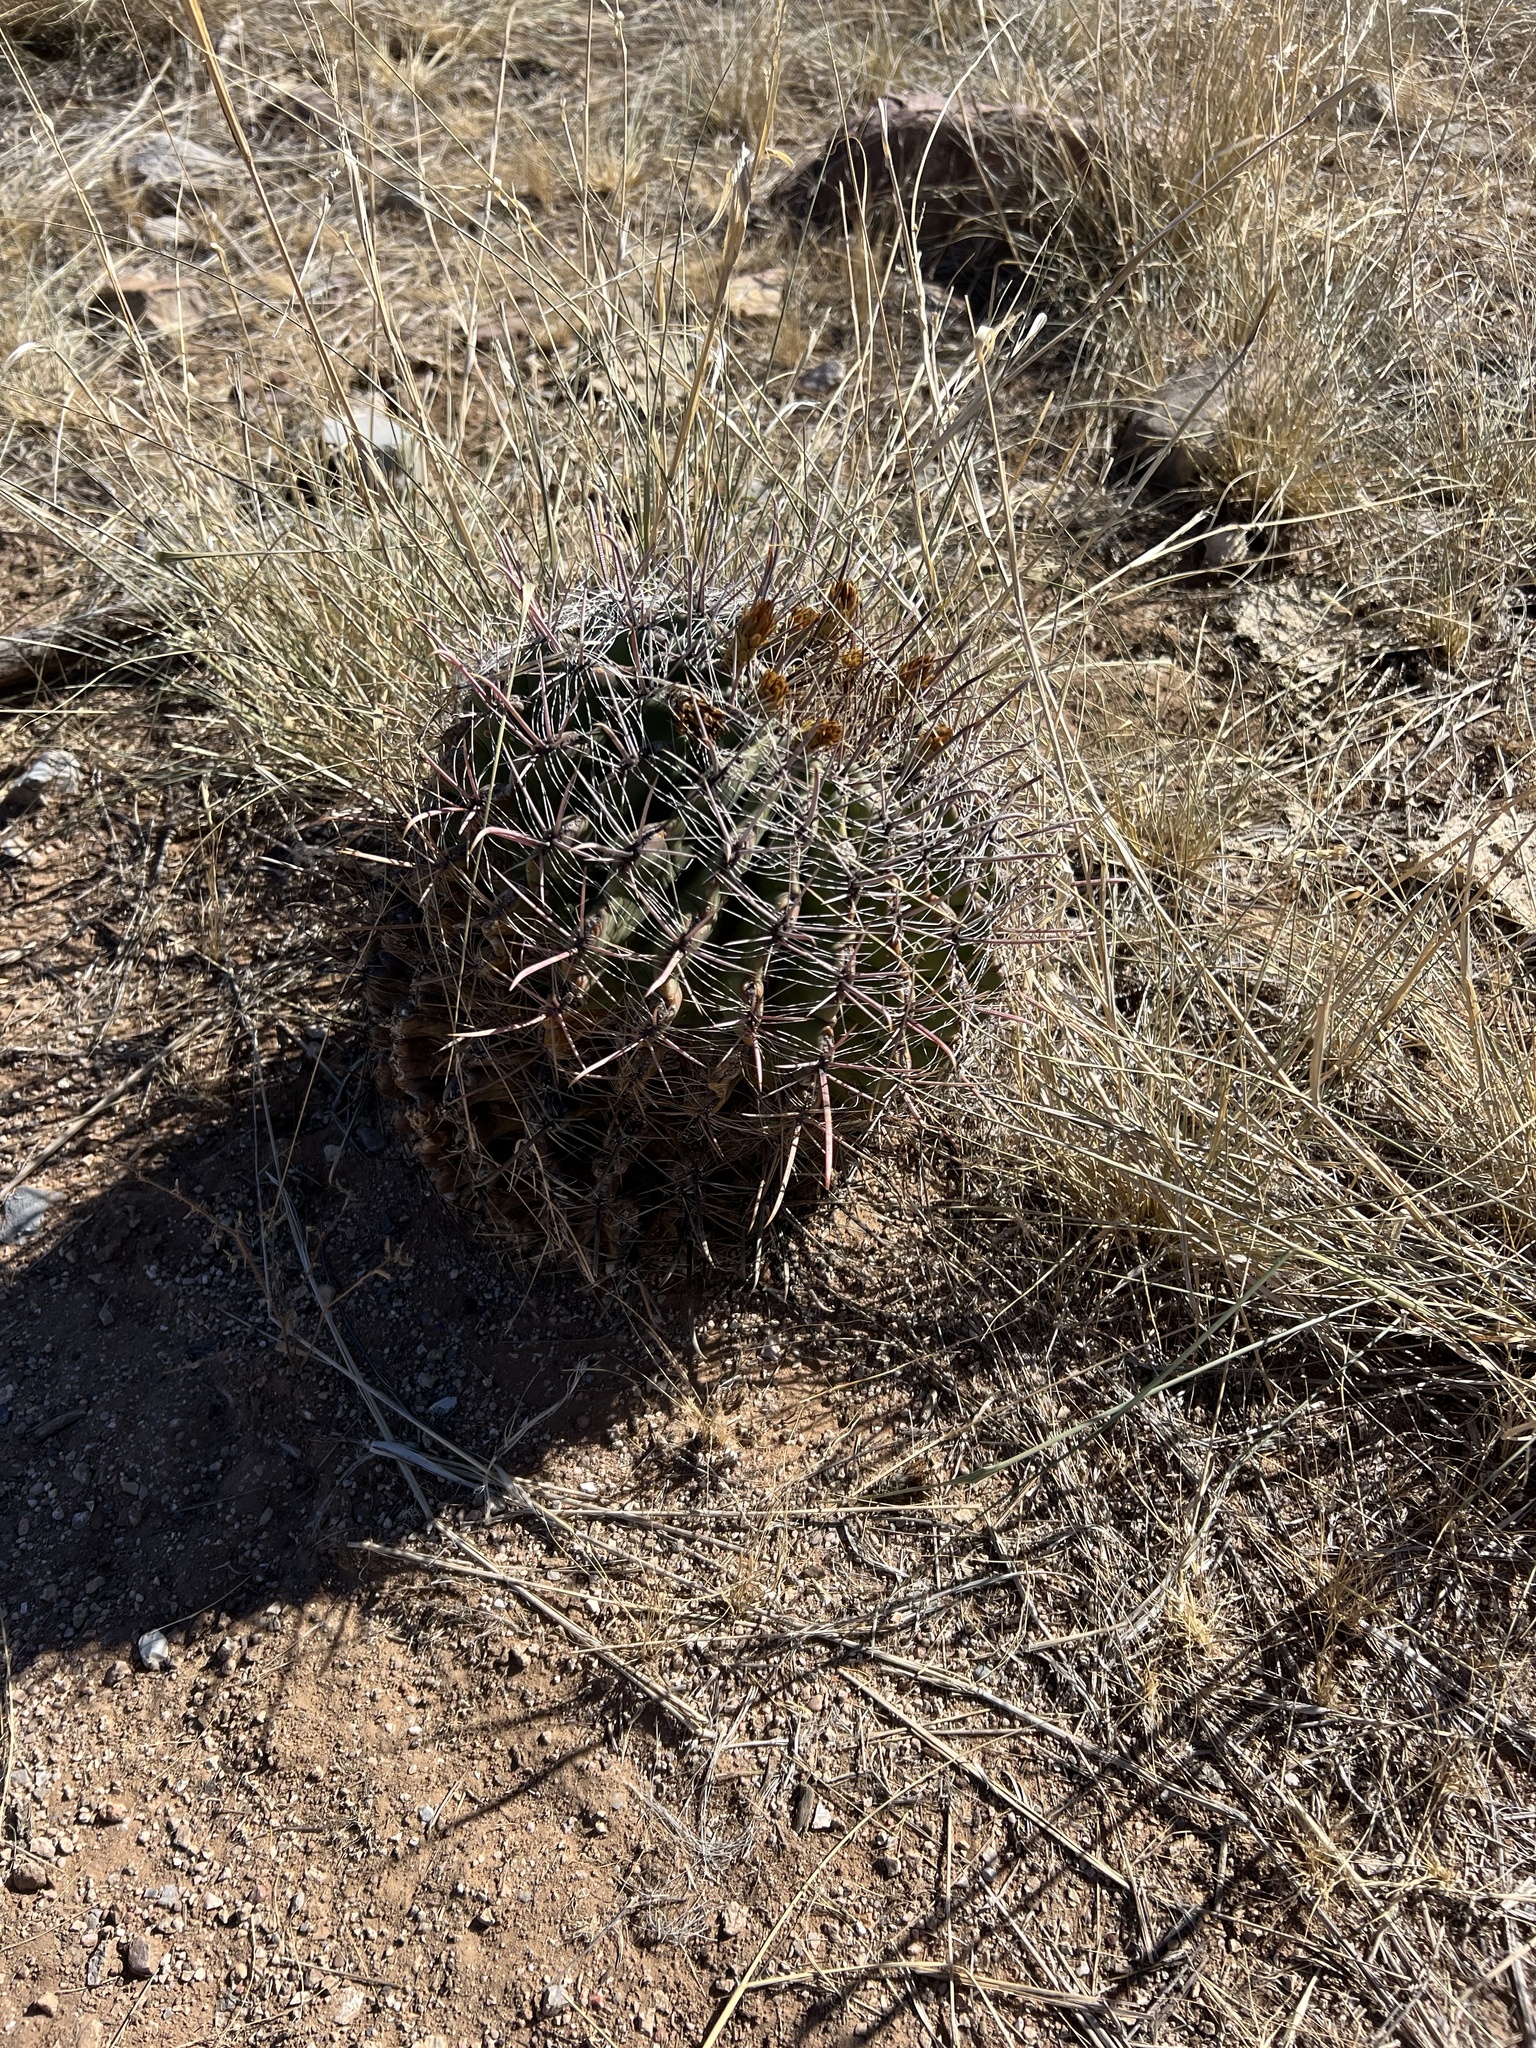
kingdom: Plantae
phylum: Tracheophyta
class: Magnoliopsida
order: Caryophyllales
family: Cactaceae
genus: Ferocactus
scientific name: Ferocactus wislizeni
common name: Candy barrel cactus
